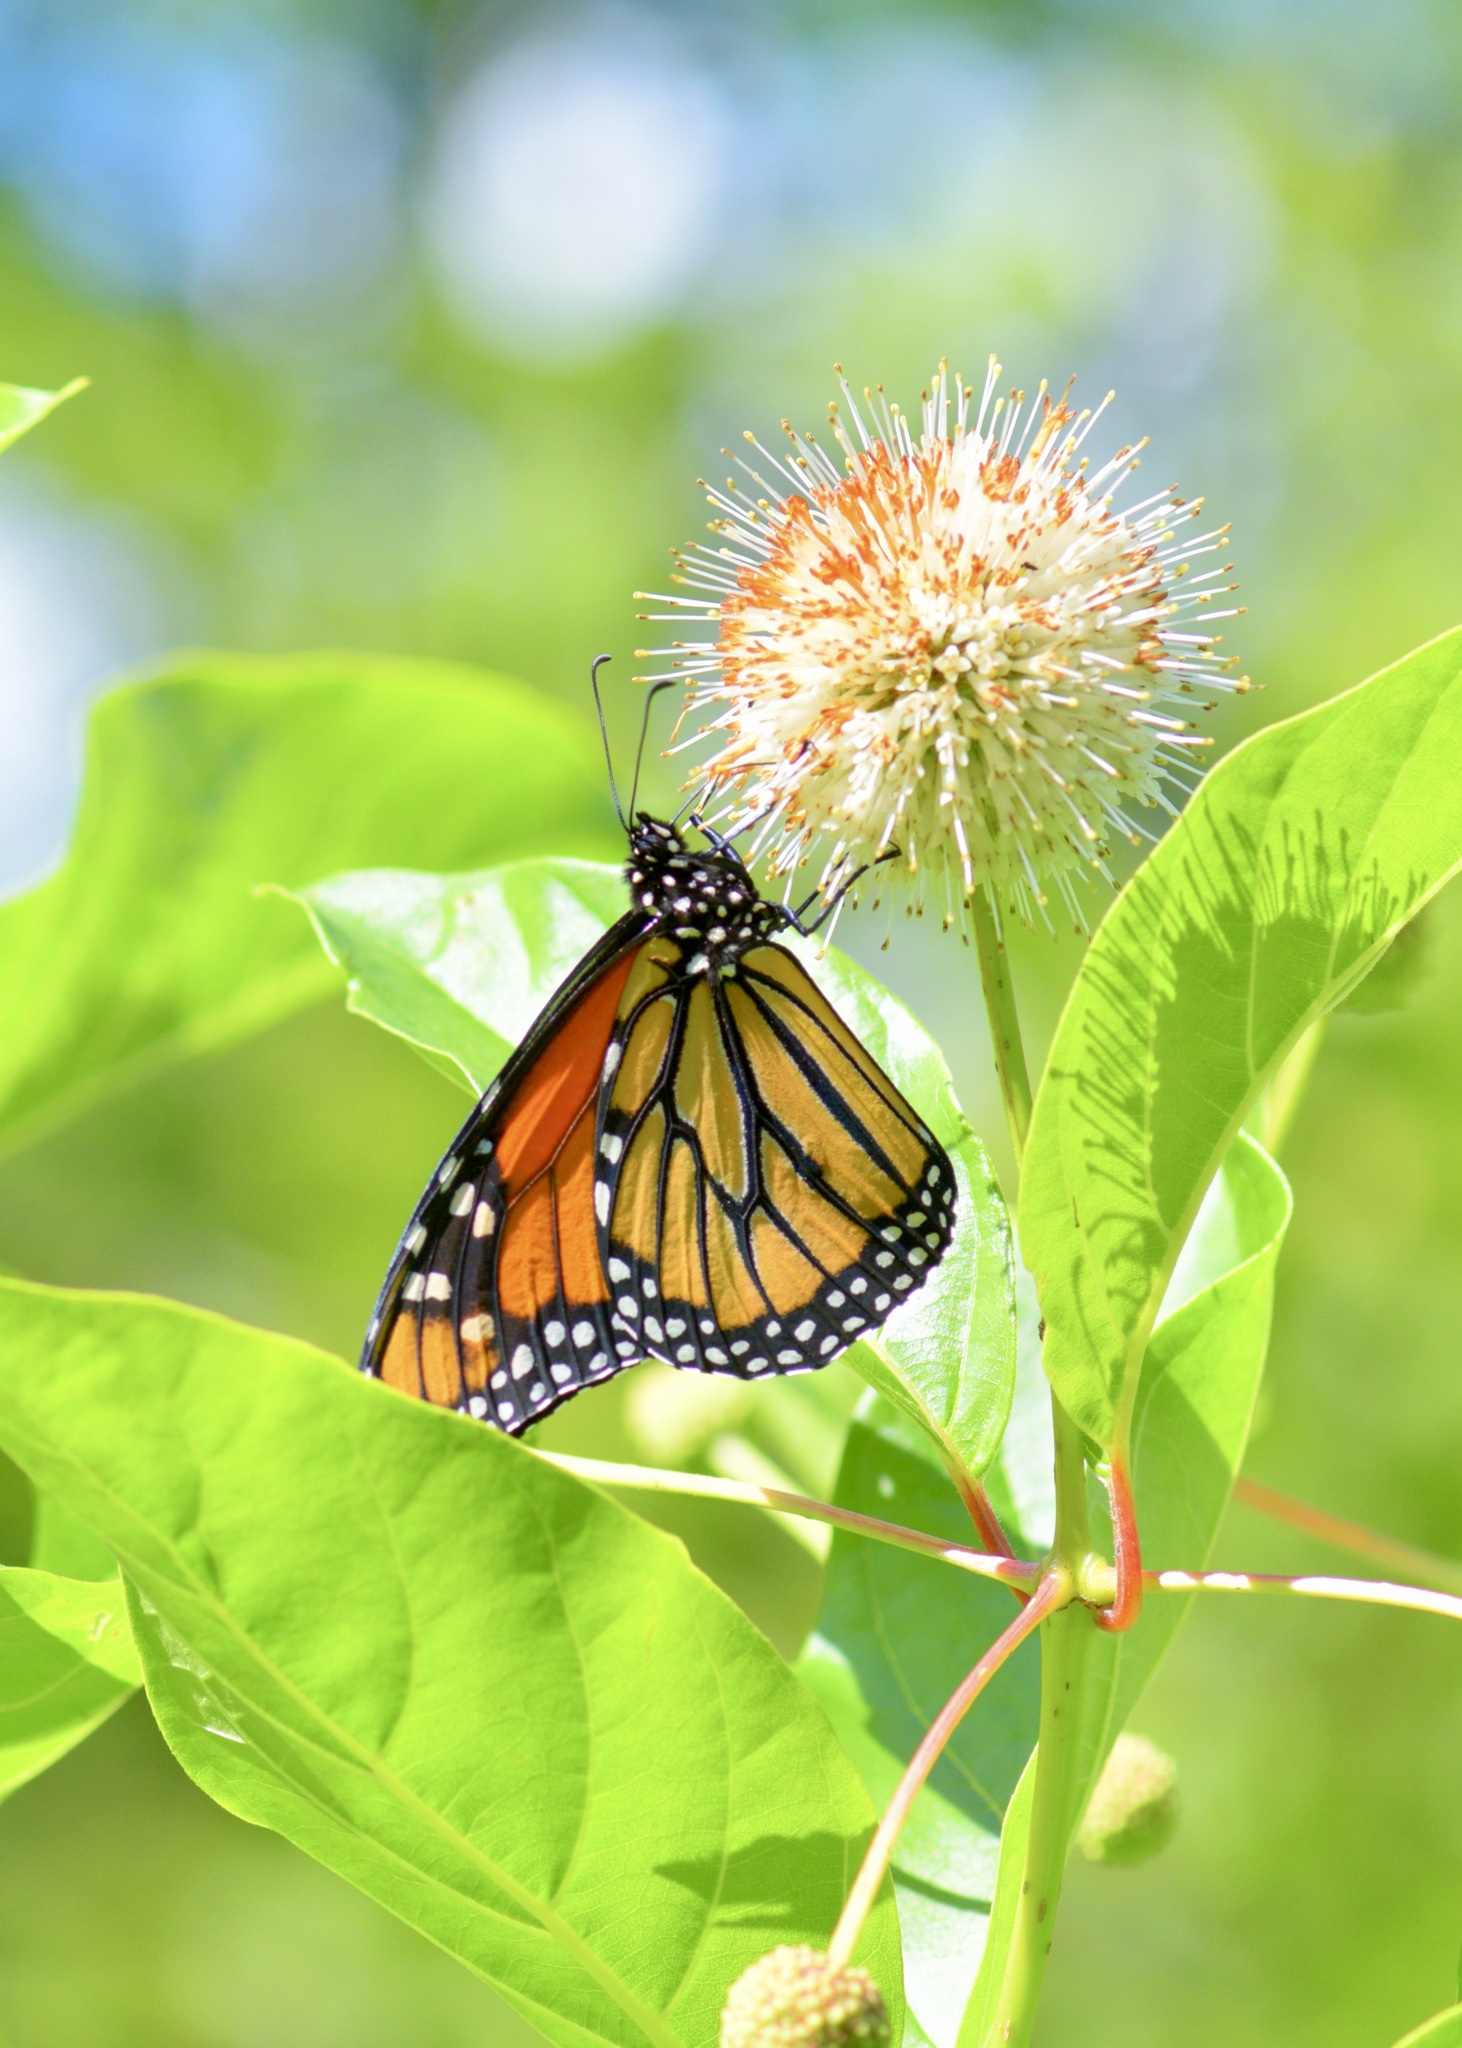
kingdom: Animalia
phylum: Arthropoda
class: Insecta
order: Lepidoptera
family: Nymphalidae
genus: Danaus
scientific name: Danaus plexippus
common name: Monarch
